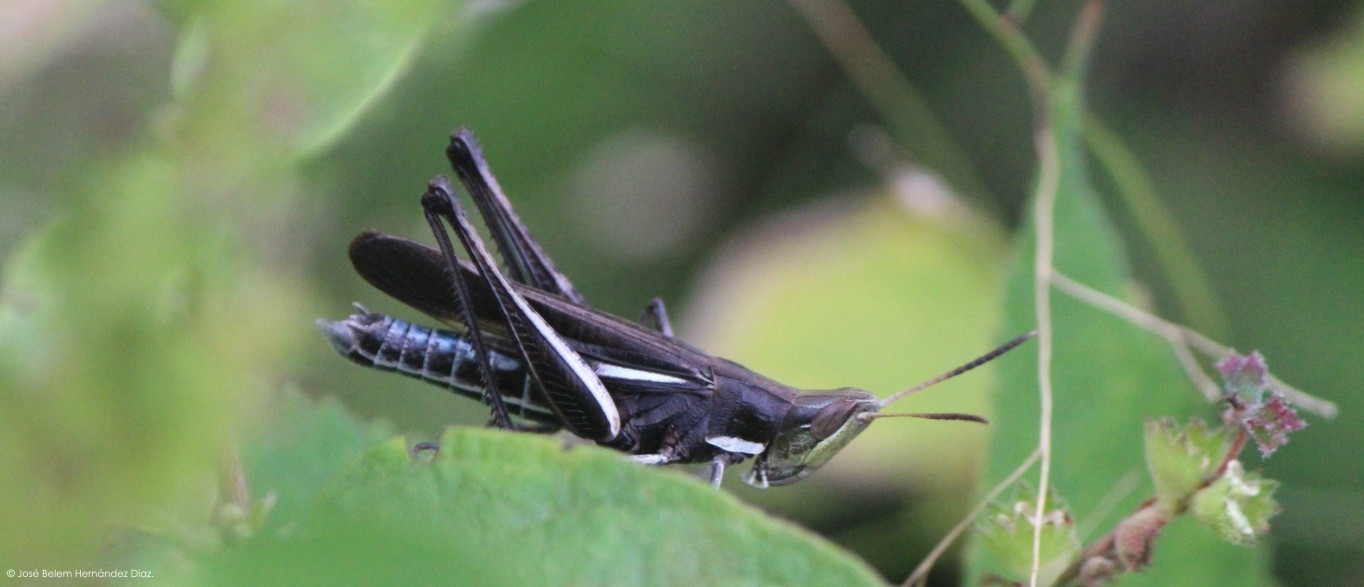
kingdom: Animalia
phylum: Arthropoda
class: Insecta
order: Orthoptera
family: Acrididae
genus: Syrbula
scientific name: Syrbula montezuma
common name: Montezuma's grasshopper
